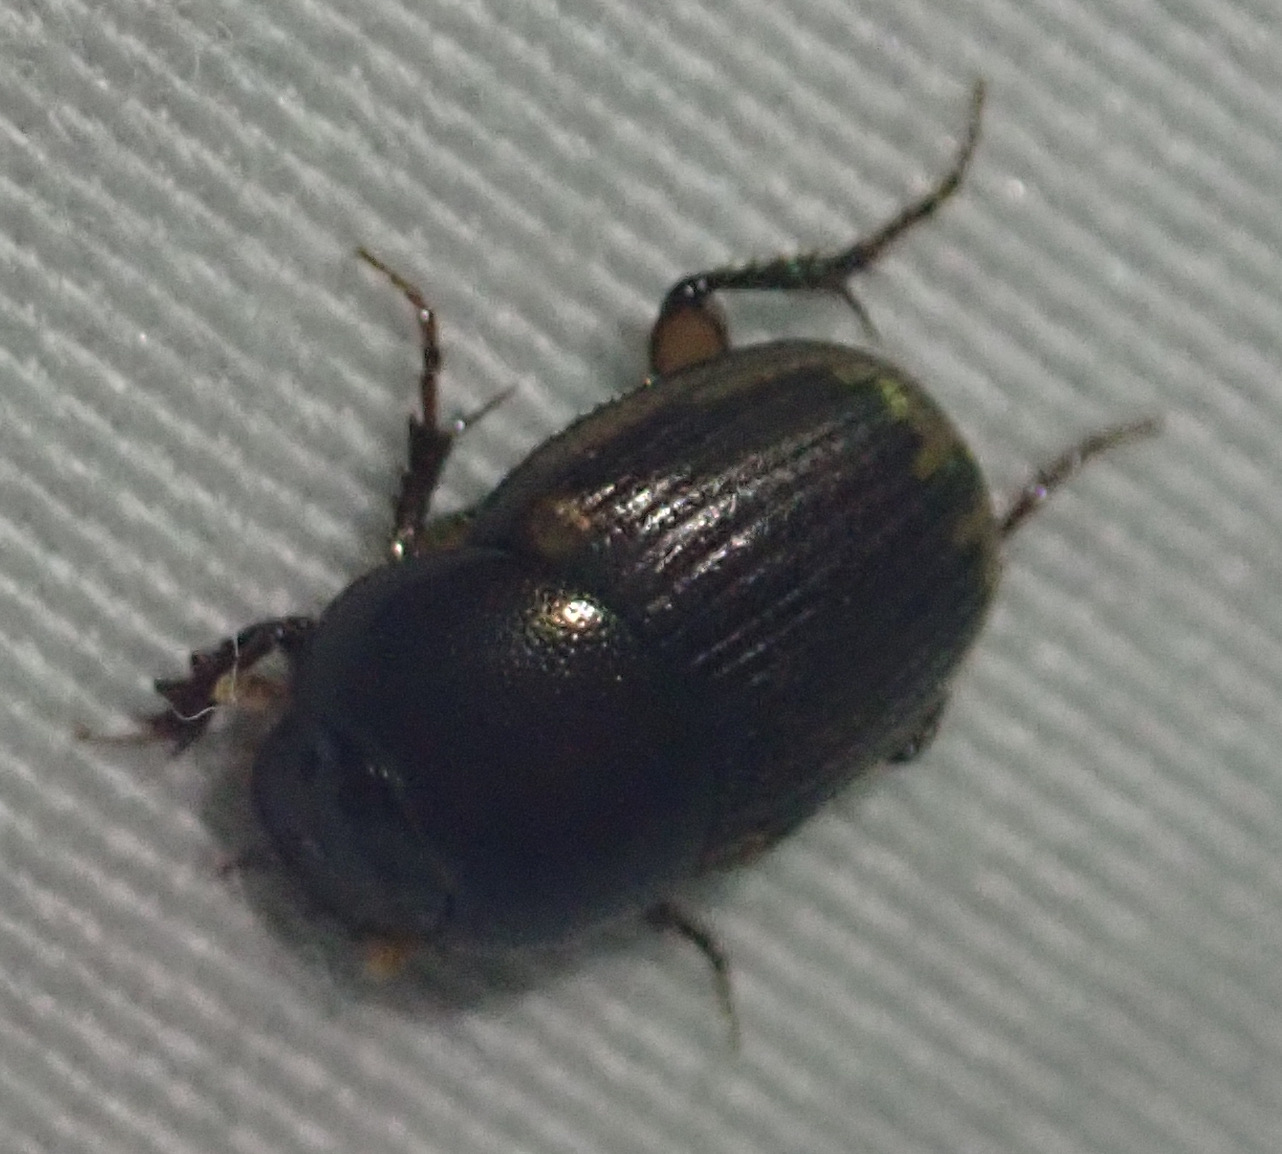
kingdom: Animalia
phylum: Arthropoda
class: Insecta
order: Coleoptera
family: Scarabaeidae
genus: Onthophagus
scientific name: Onthophagus vinctus
